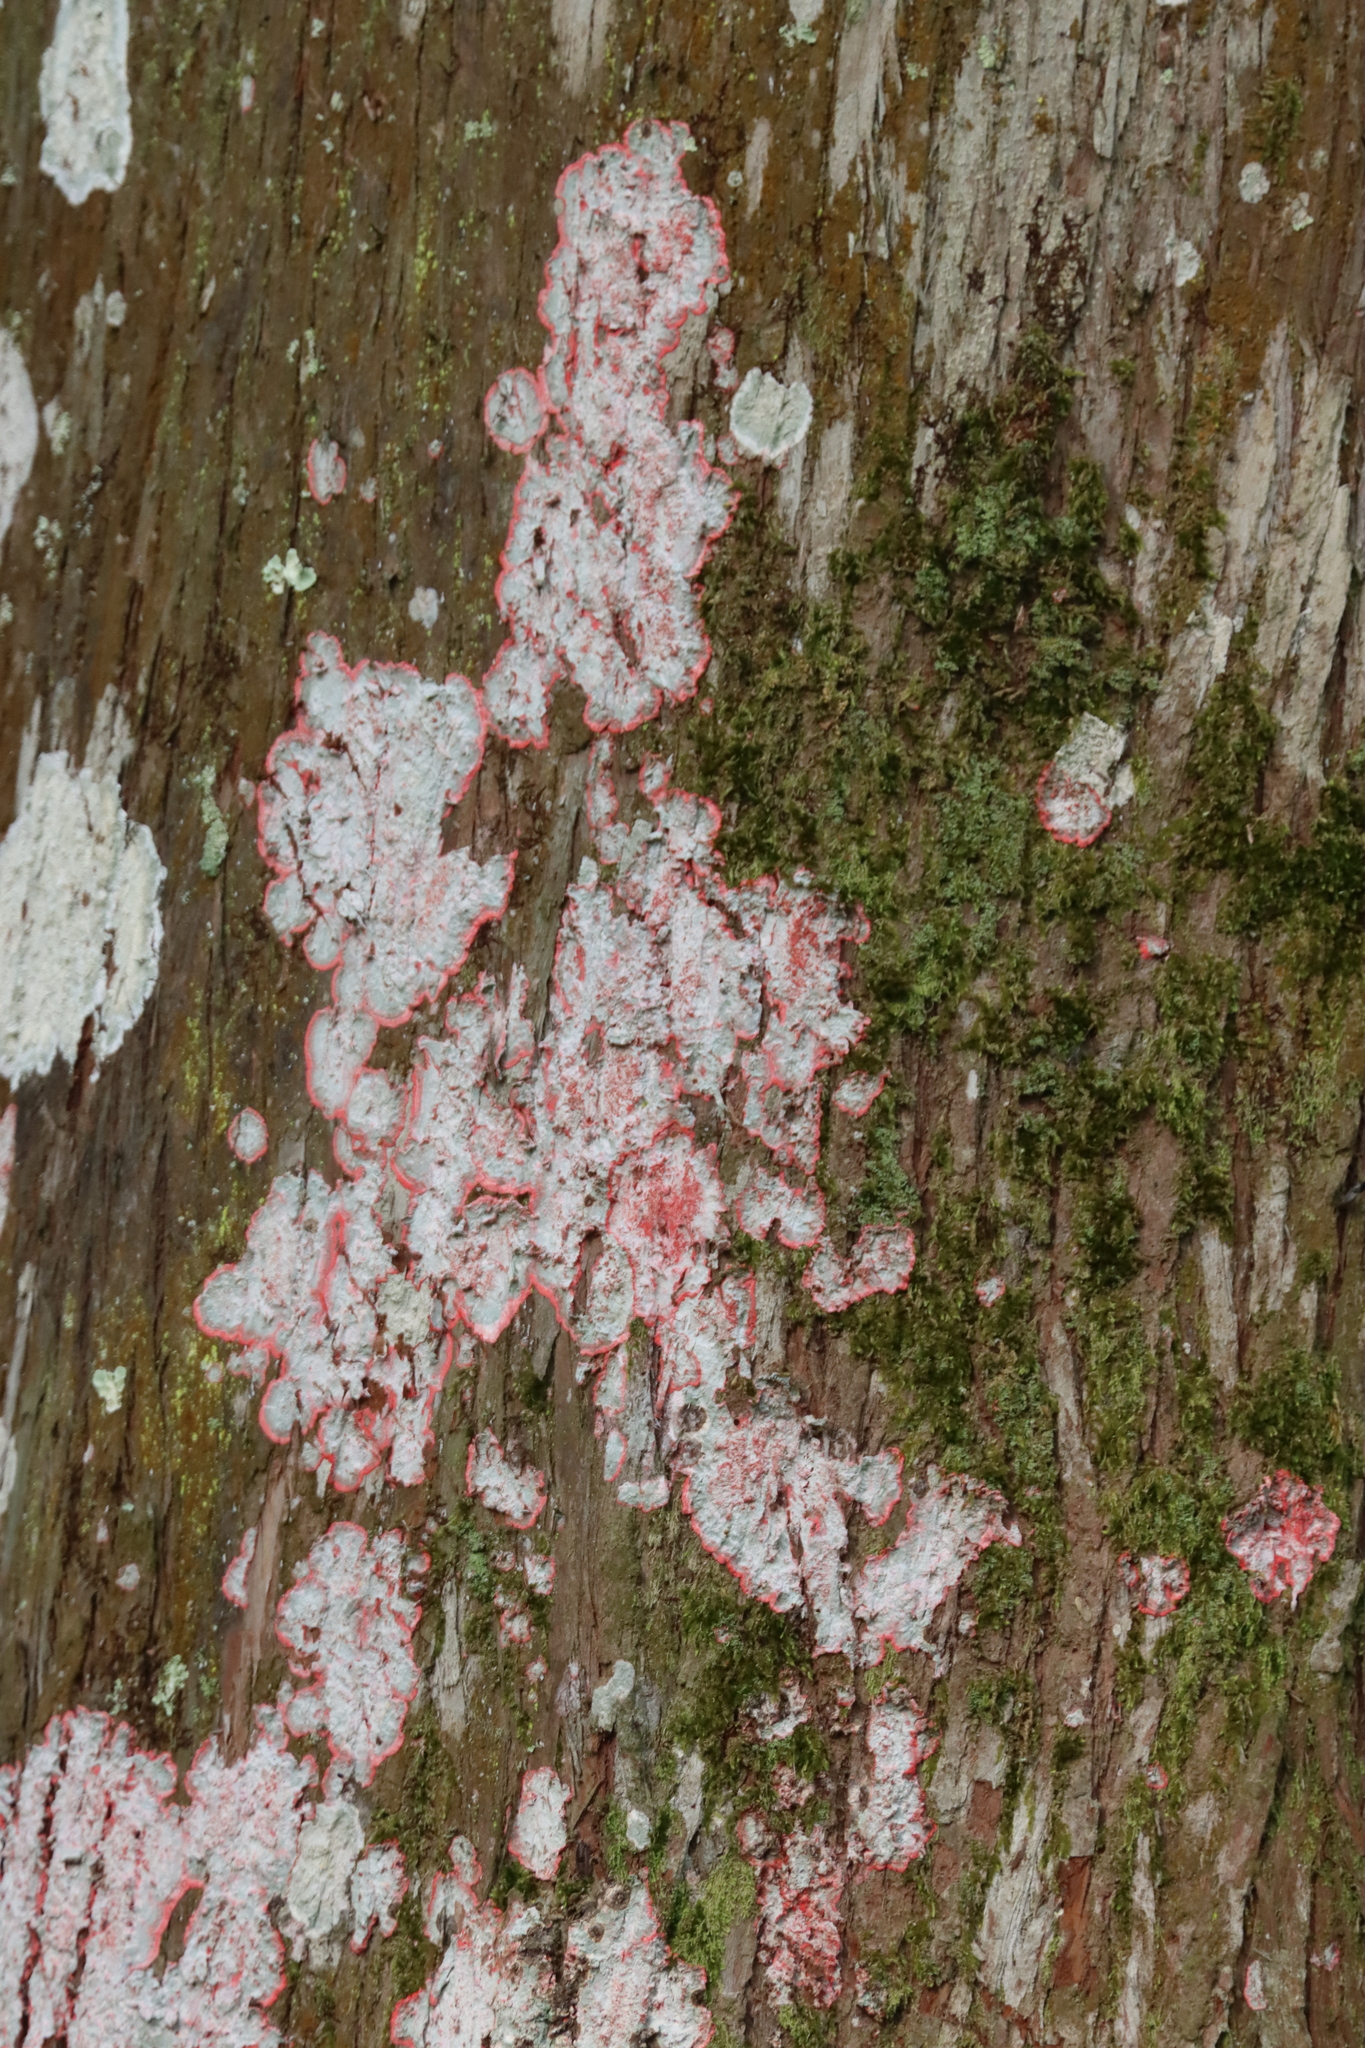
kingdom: Fungi
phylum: Ascomycota
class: Arthoniomycetes
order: Arthoniales
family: Arthoniaceae
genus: Herpothallon
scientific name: Herpothallon rubrocinctum
